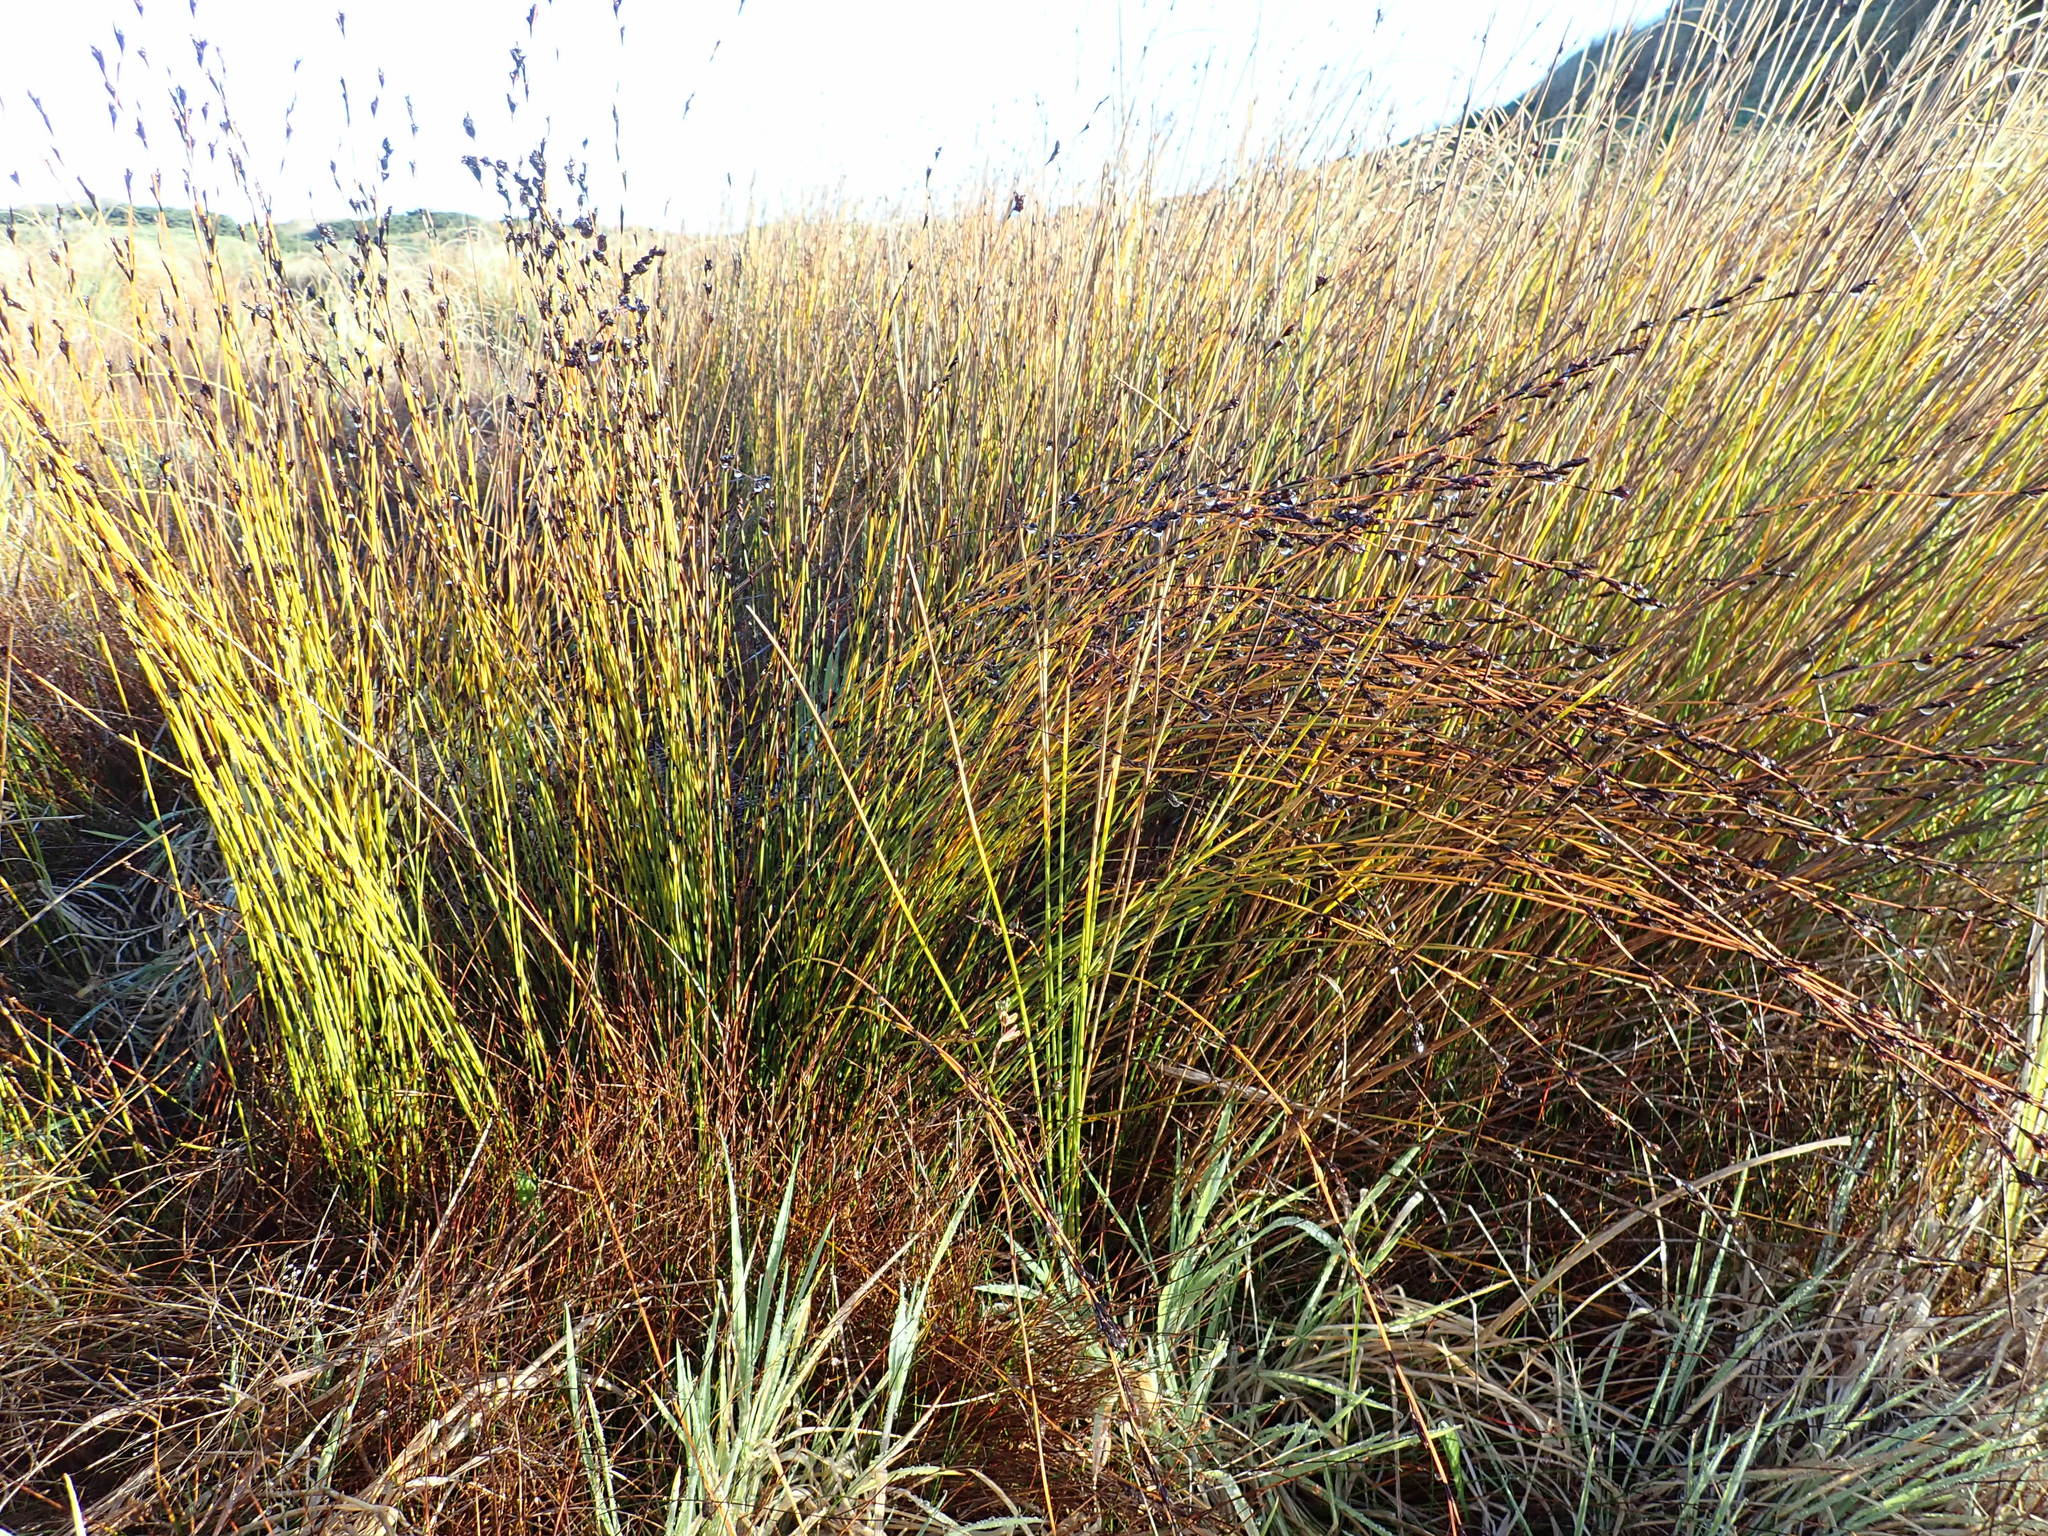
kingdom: Plantae
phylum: Tracheophyta
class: Liliopsida
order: Poales
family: Restionaceae
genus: Apodasmia
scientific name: Apodasmia similis
